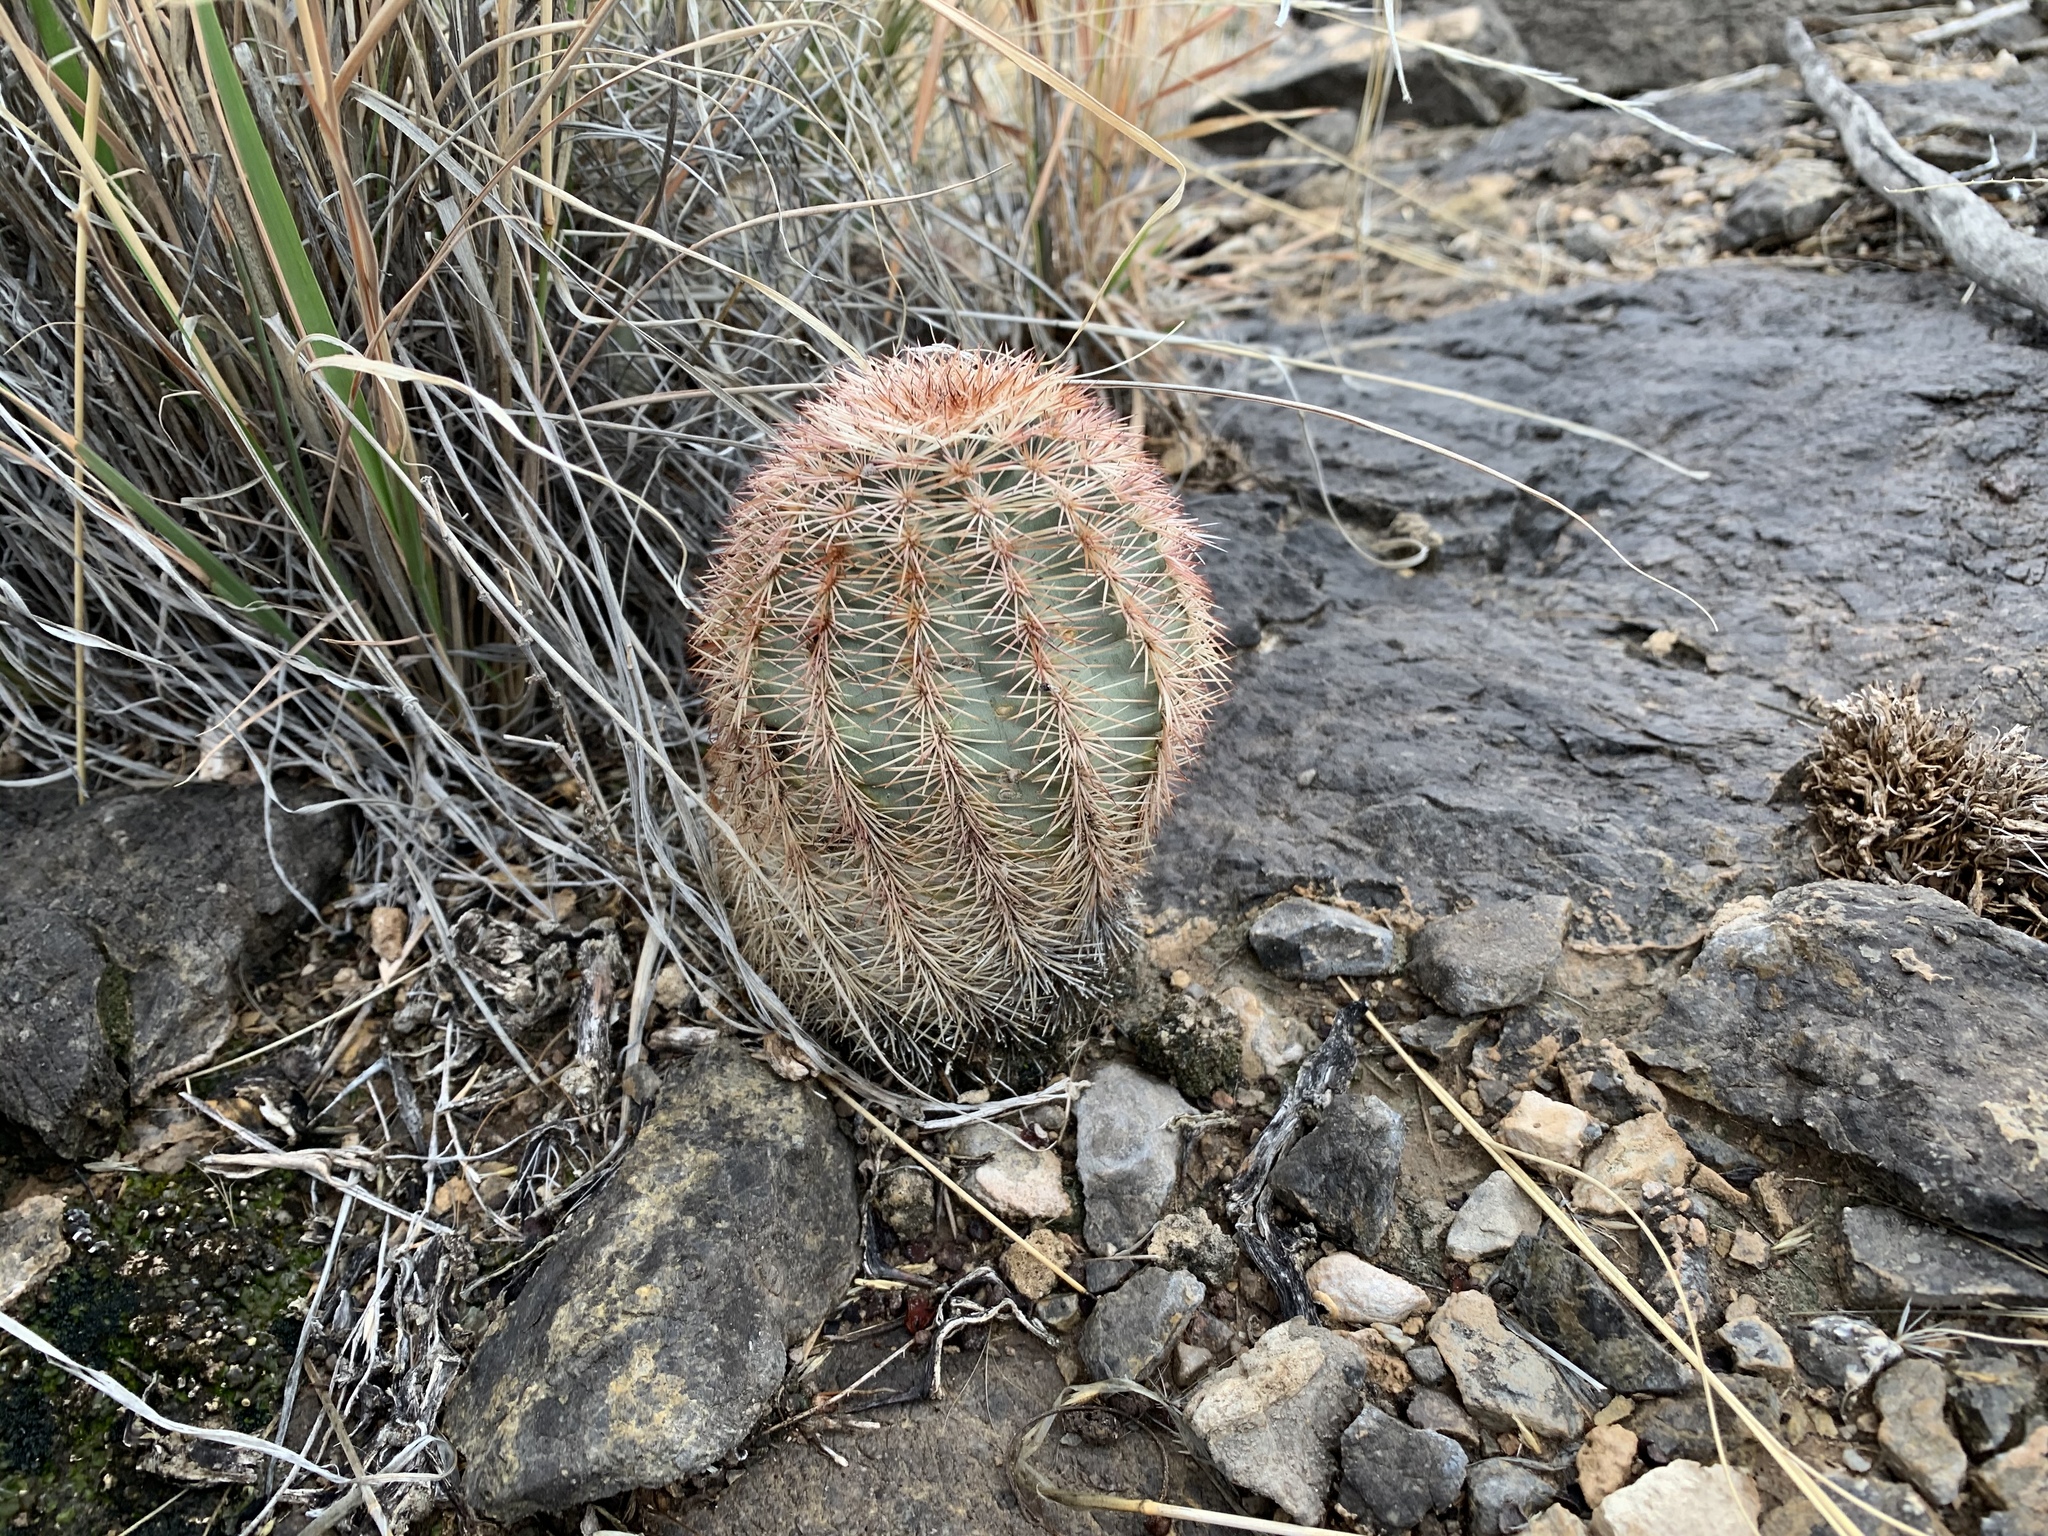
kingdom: Plantae
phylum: Tracheophyta
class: Magnoliopsida
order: Caryophyllales
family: Cactaceae
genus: Echinocereus
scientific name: Echinocereus dasyacanthus
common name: Spiny hedgehog cactus
